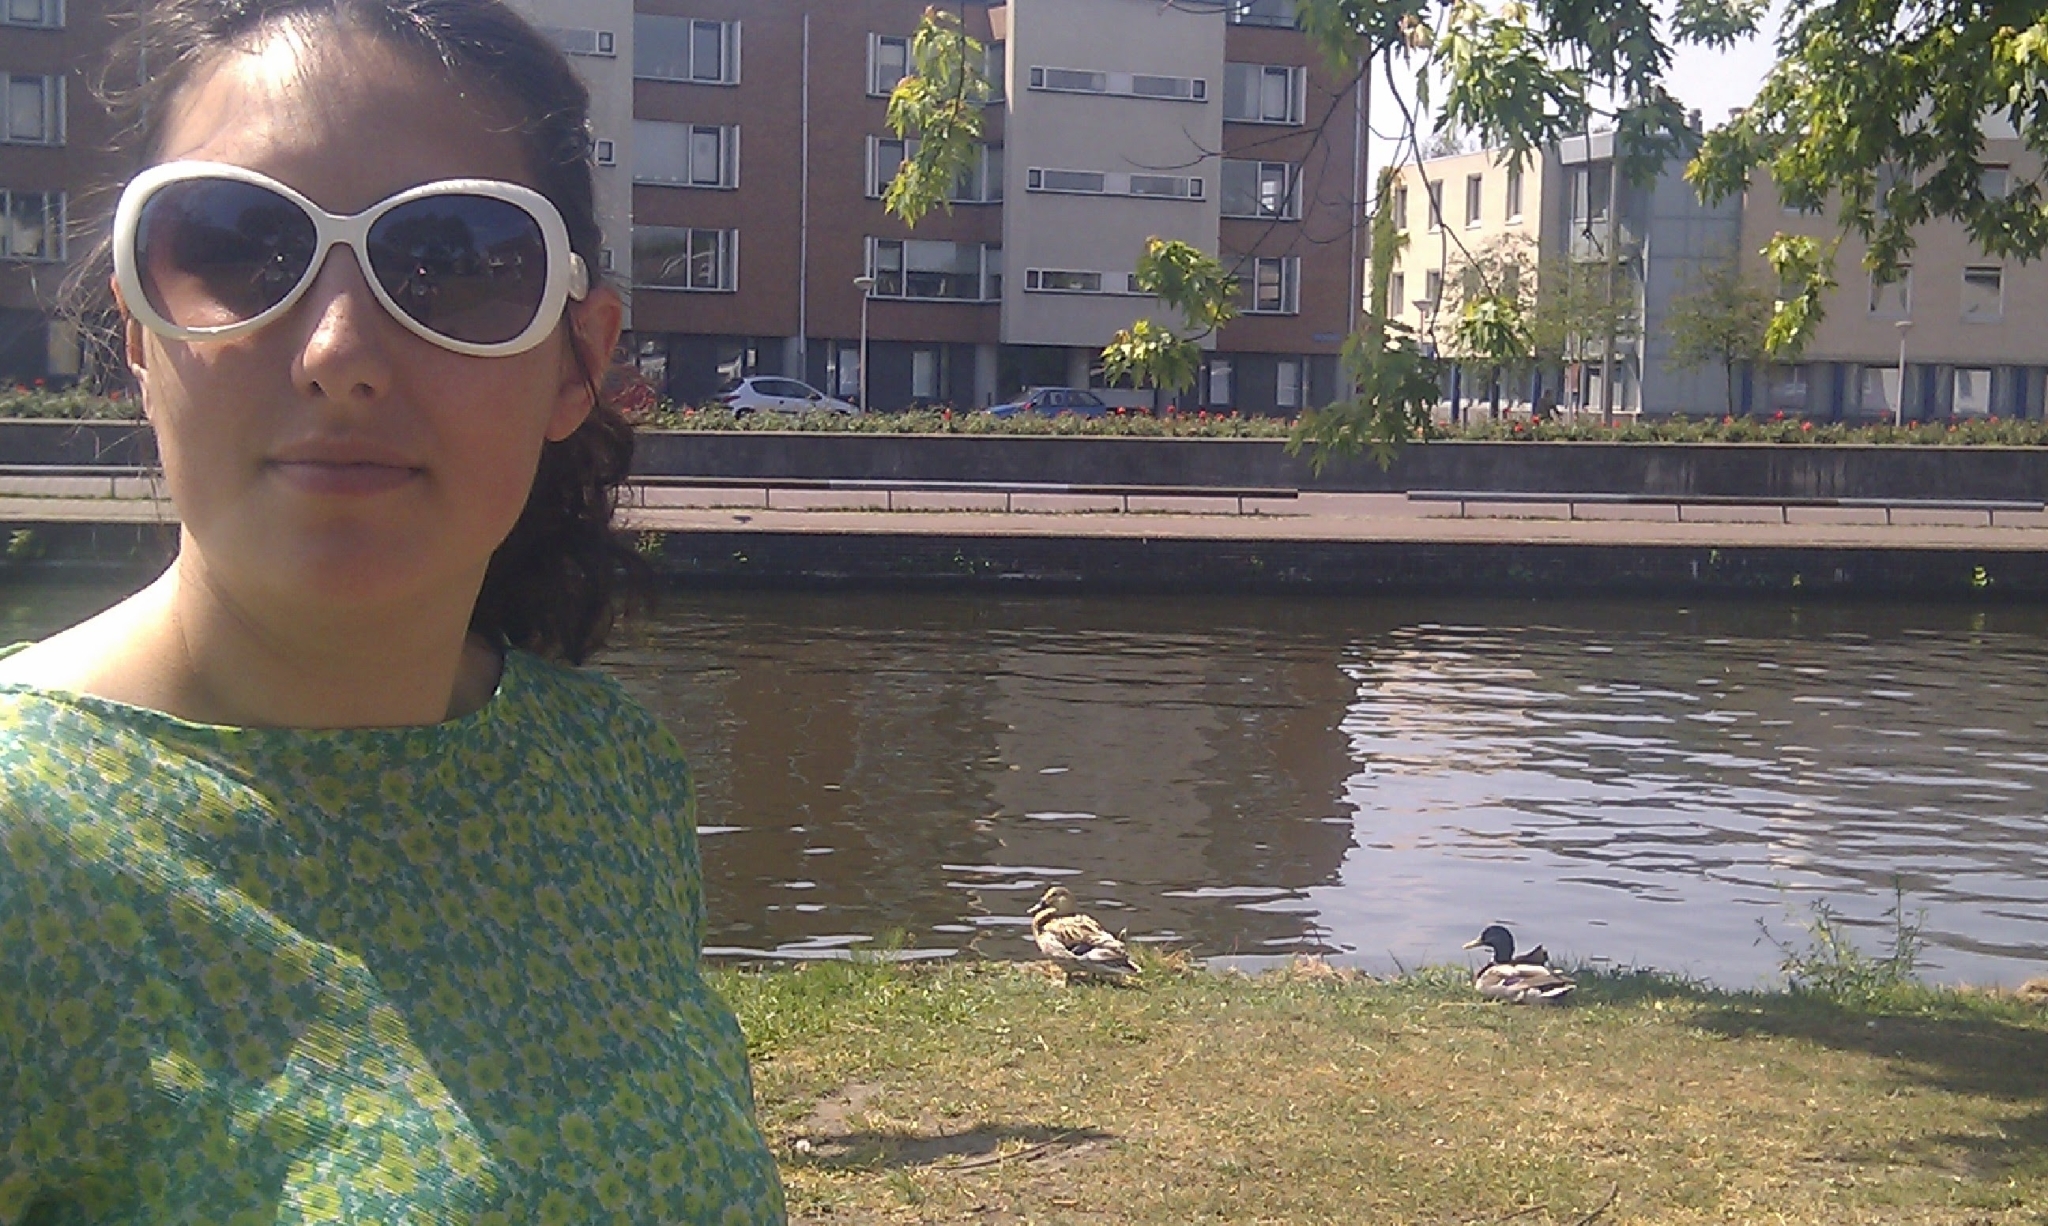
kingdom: Animalia
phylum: Chordata
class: Aves
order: Anseriformes
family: Anatidae
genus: Anas
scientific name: Anas platyrhynchos
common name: Mallard
